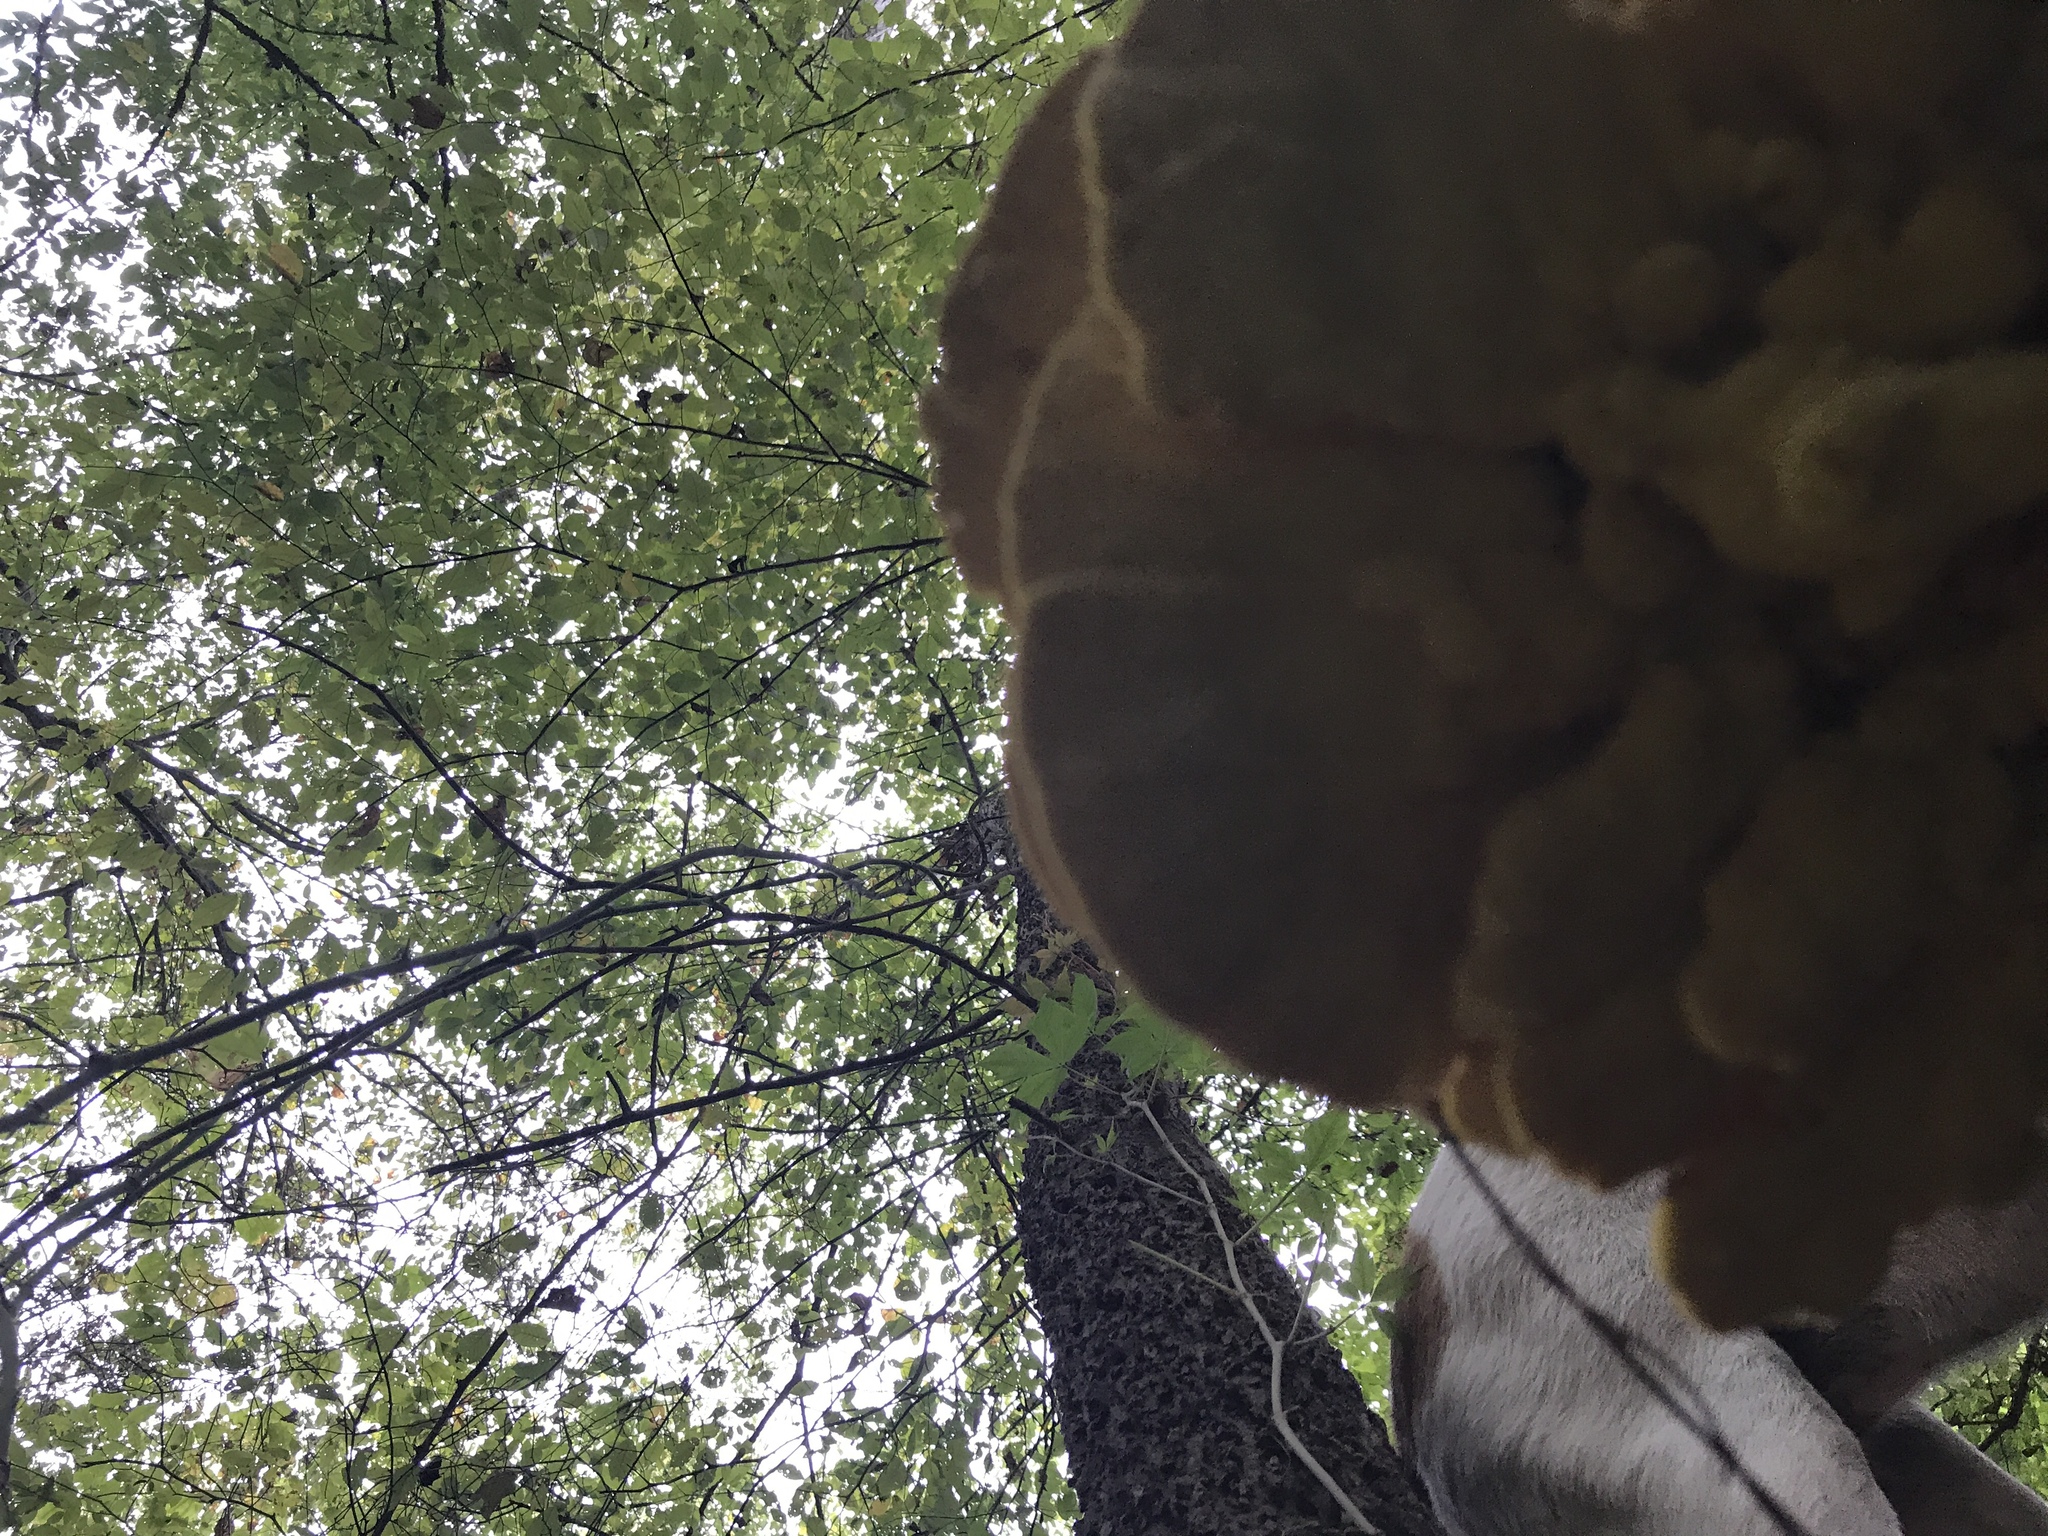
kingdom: Fungi
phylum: Basidiomycota
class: Agaricomycetes
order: Polyporales
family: Laetiporaceae
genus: Laetiporus
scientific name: Laetiporus sulphureus
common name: Chicken of the woods
